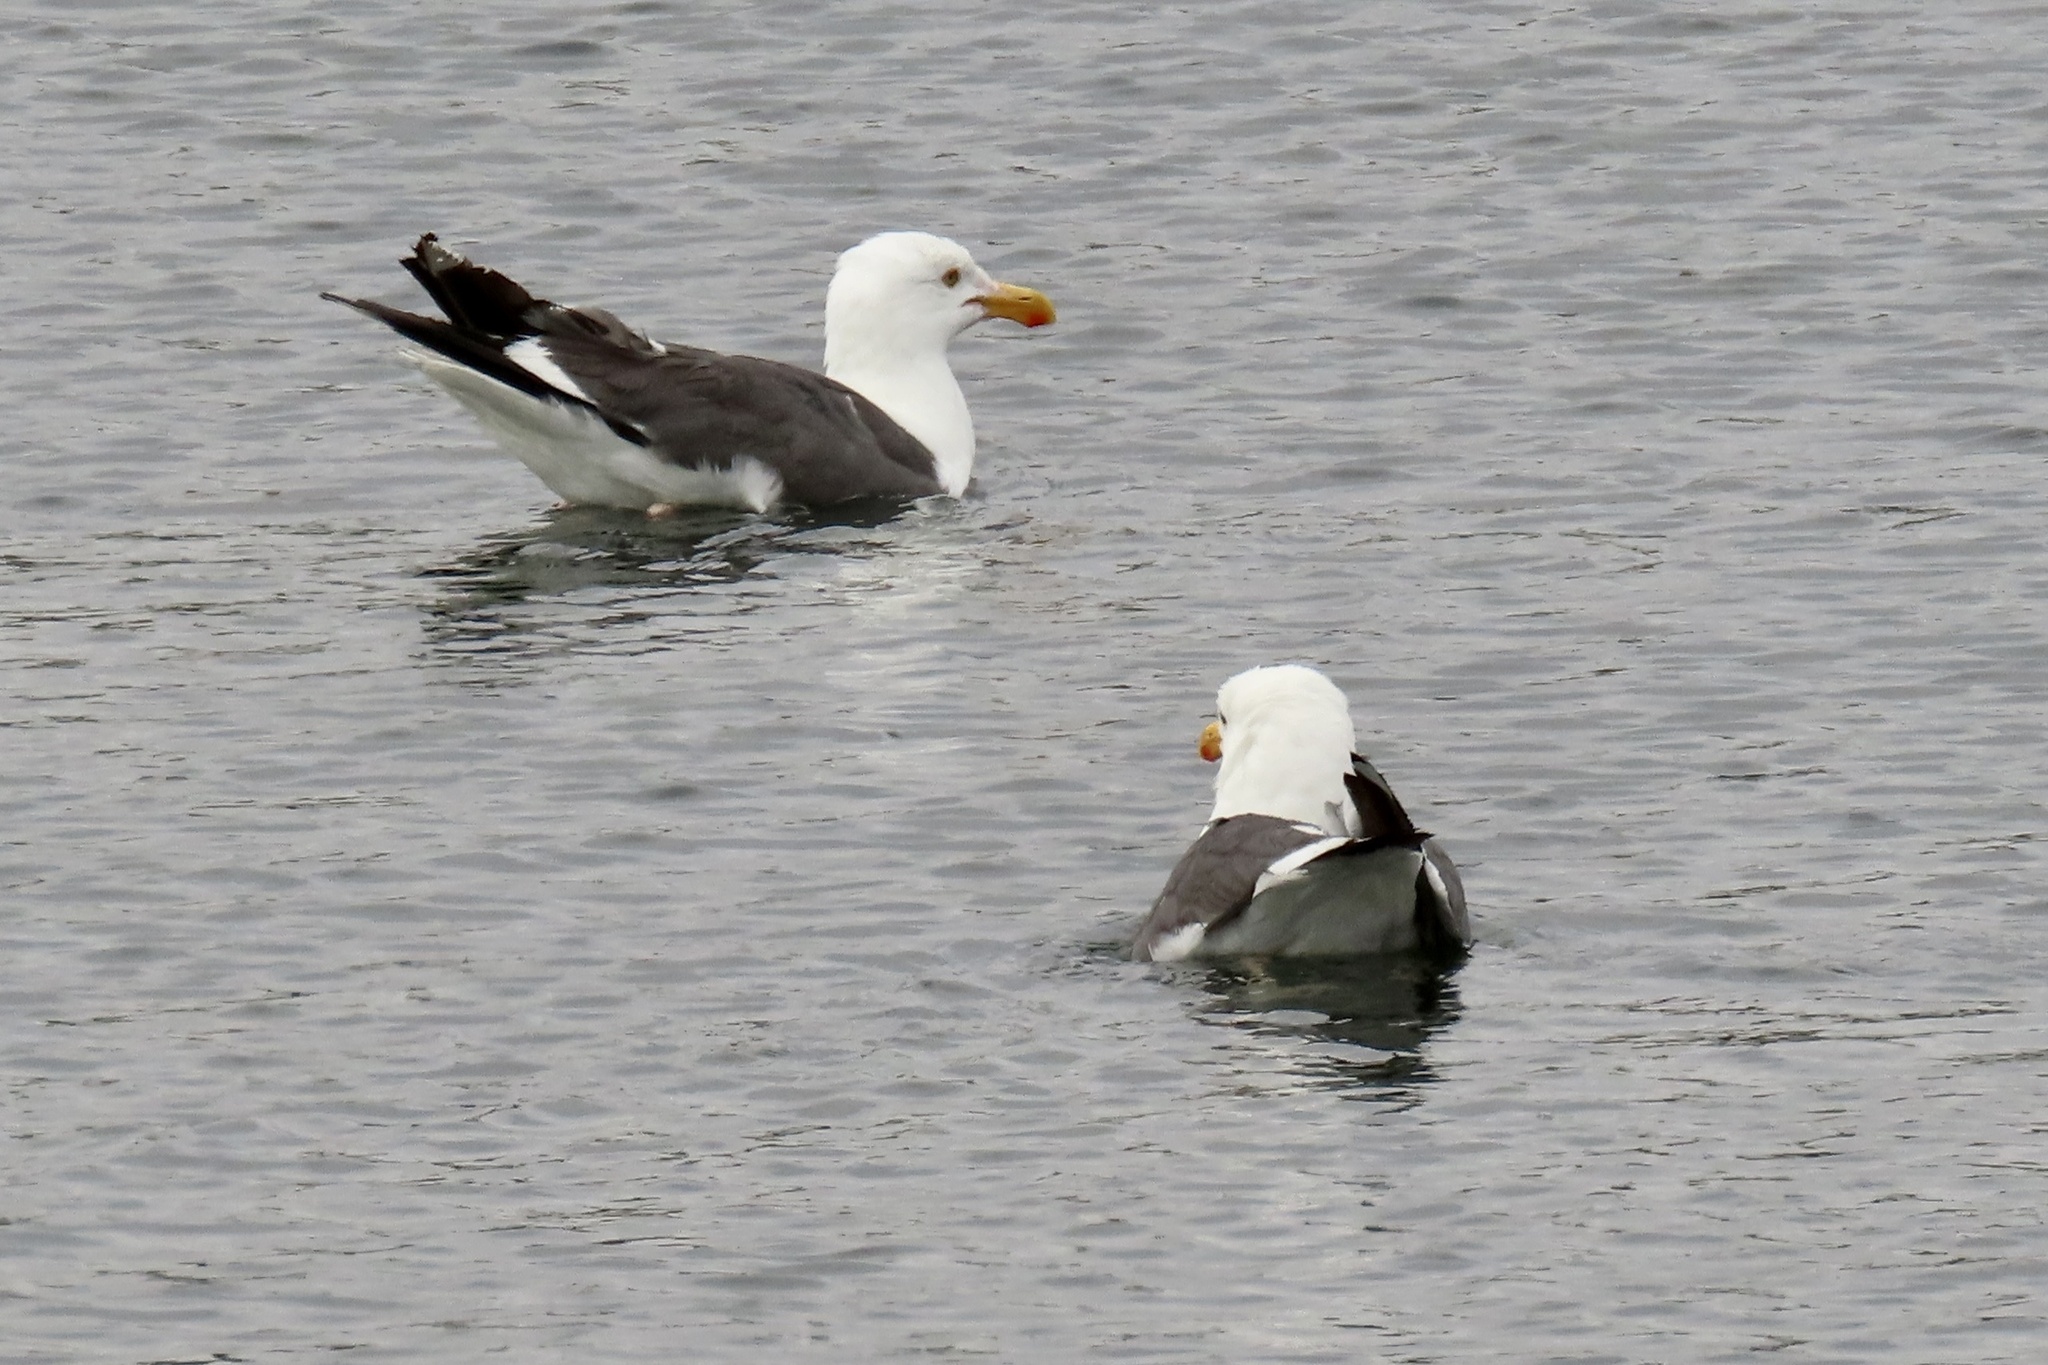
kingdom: Animalia
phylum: Chordata
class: Aves
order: Charadriiformes
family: Laridae
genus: Larus
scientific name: Larus occidentalis
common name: Western gull
